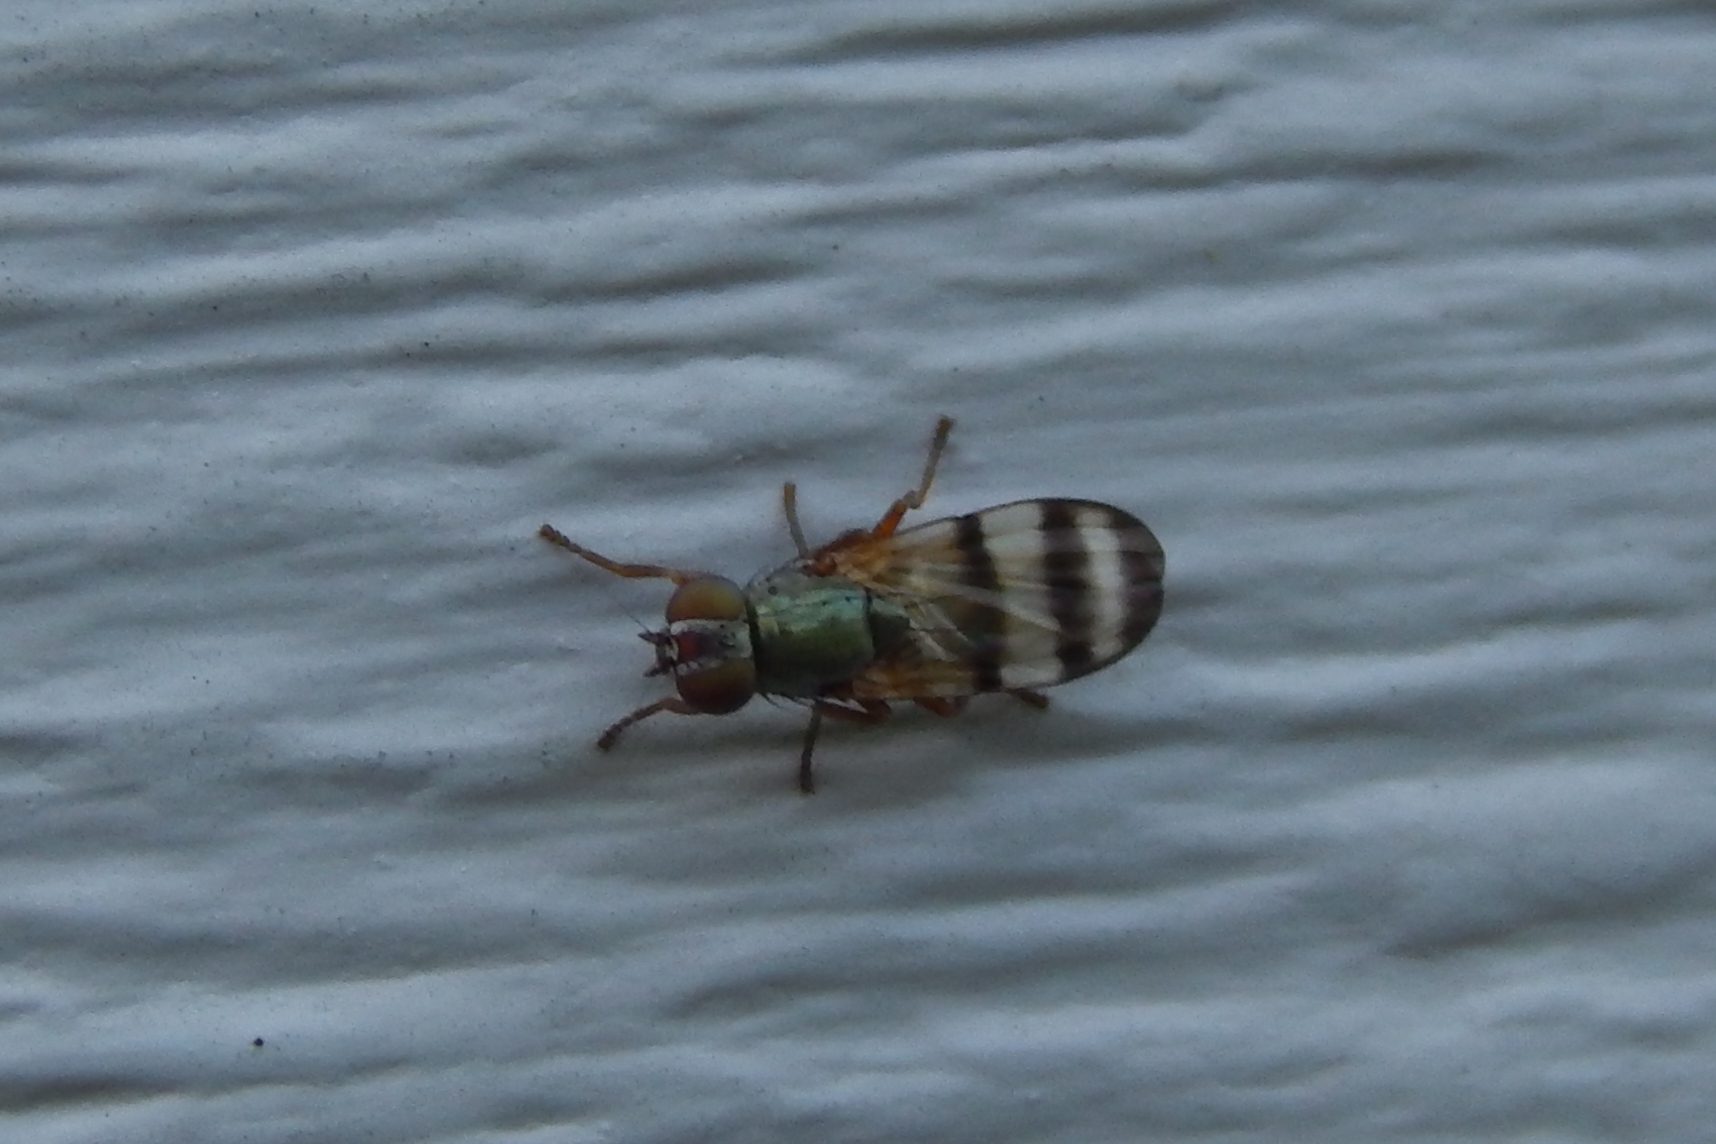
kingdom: Animalia
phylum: Arthropoda
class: Insecta
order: Diptera
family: Ulidiidae
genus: Chaetopsis
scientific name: Chaetopsis
